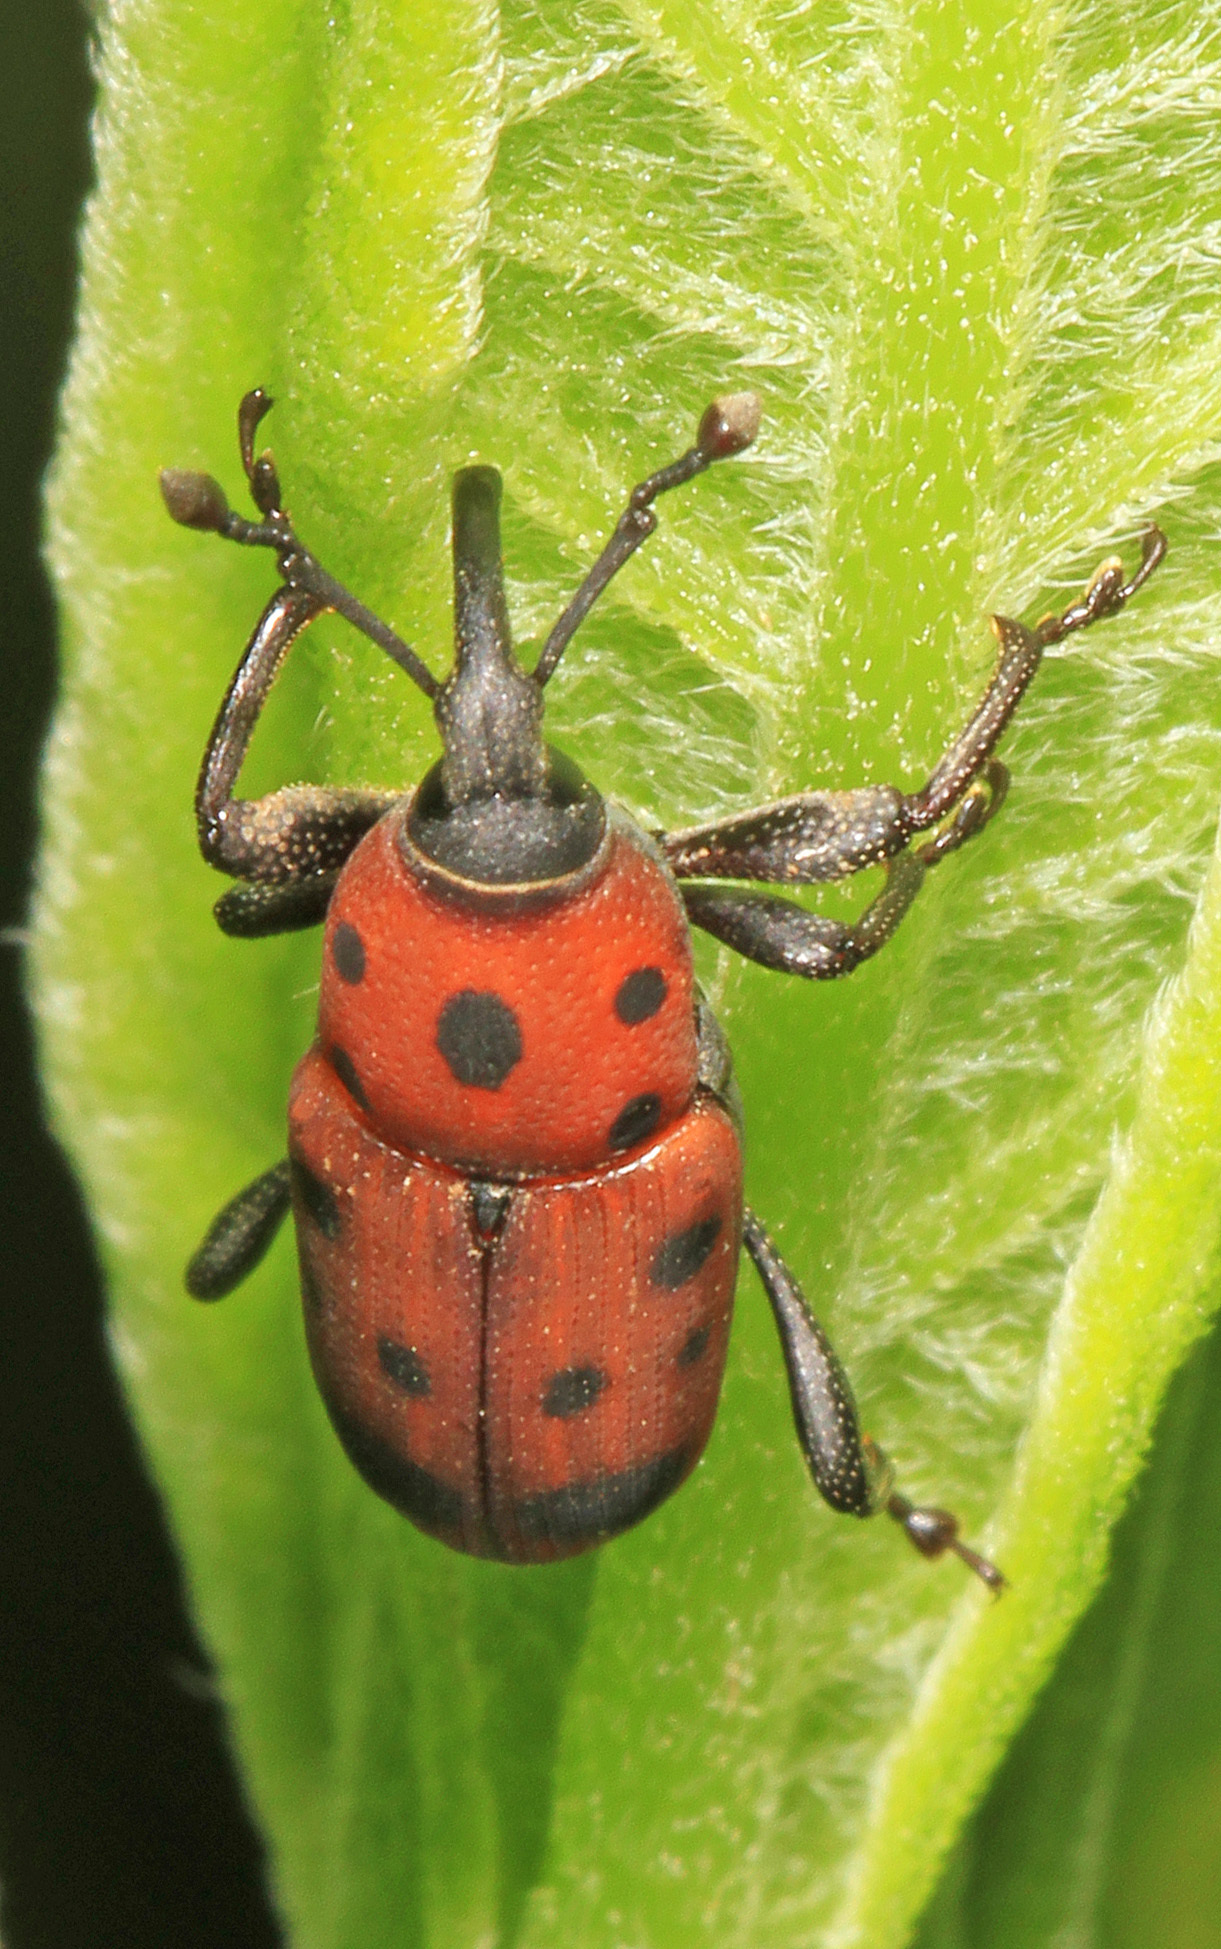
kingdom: Animalia
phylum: Arthropoda
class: Insecta
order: Coleoptera
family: Dryophthoridae
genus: Rhodobaenus
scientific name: Rhodobaenus tredecimpunctatus
